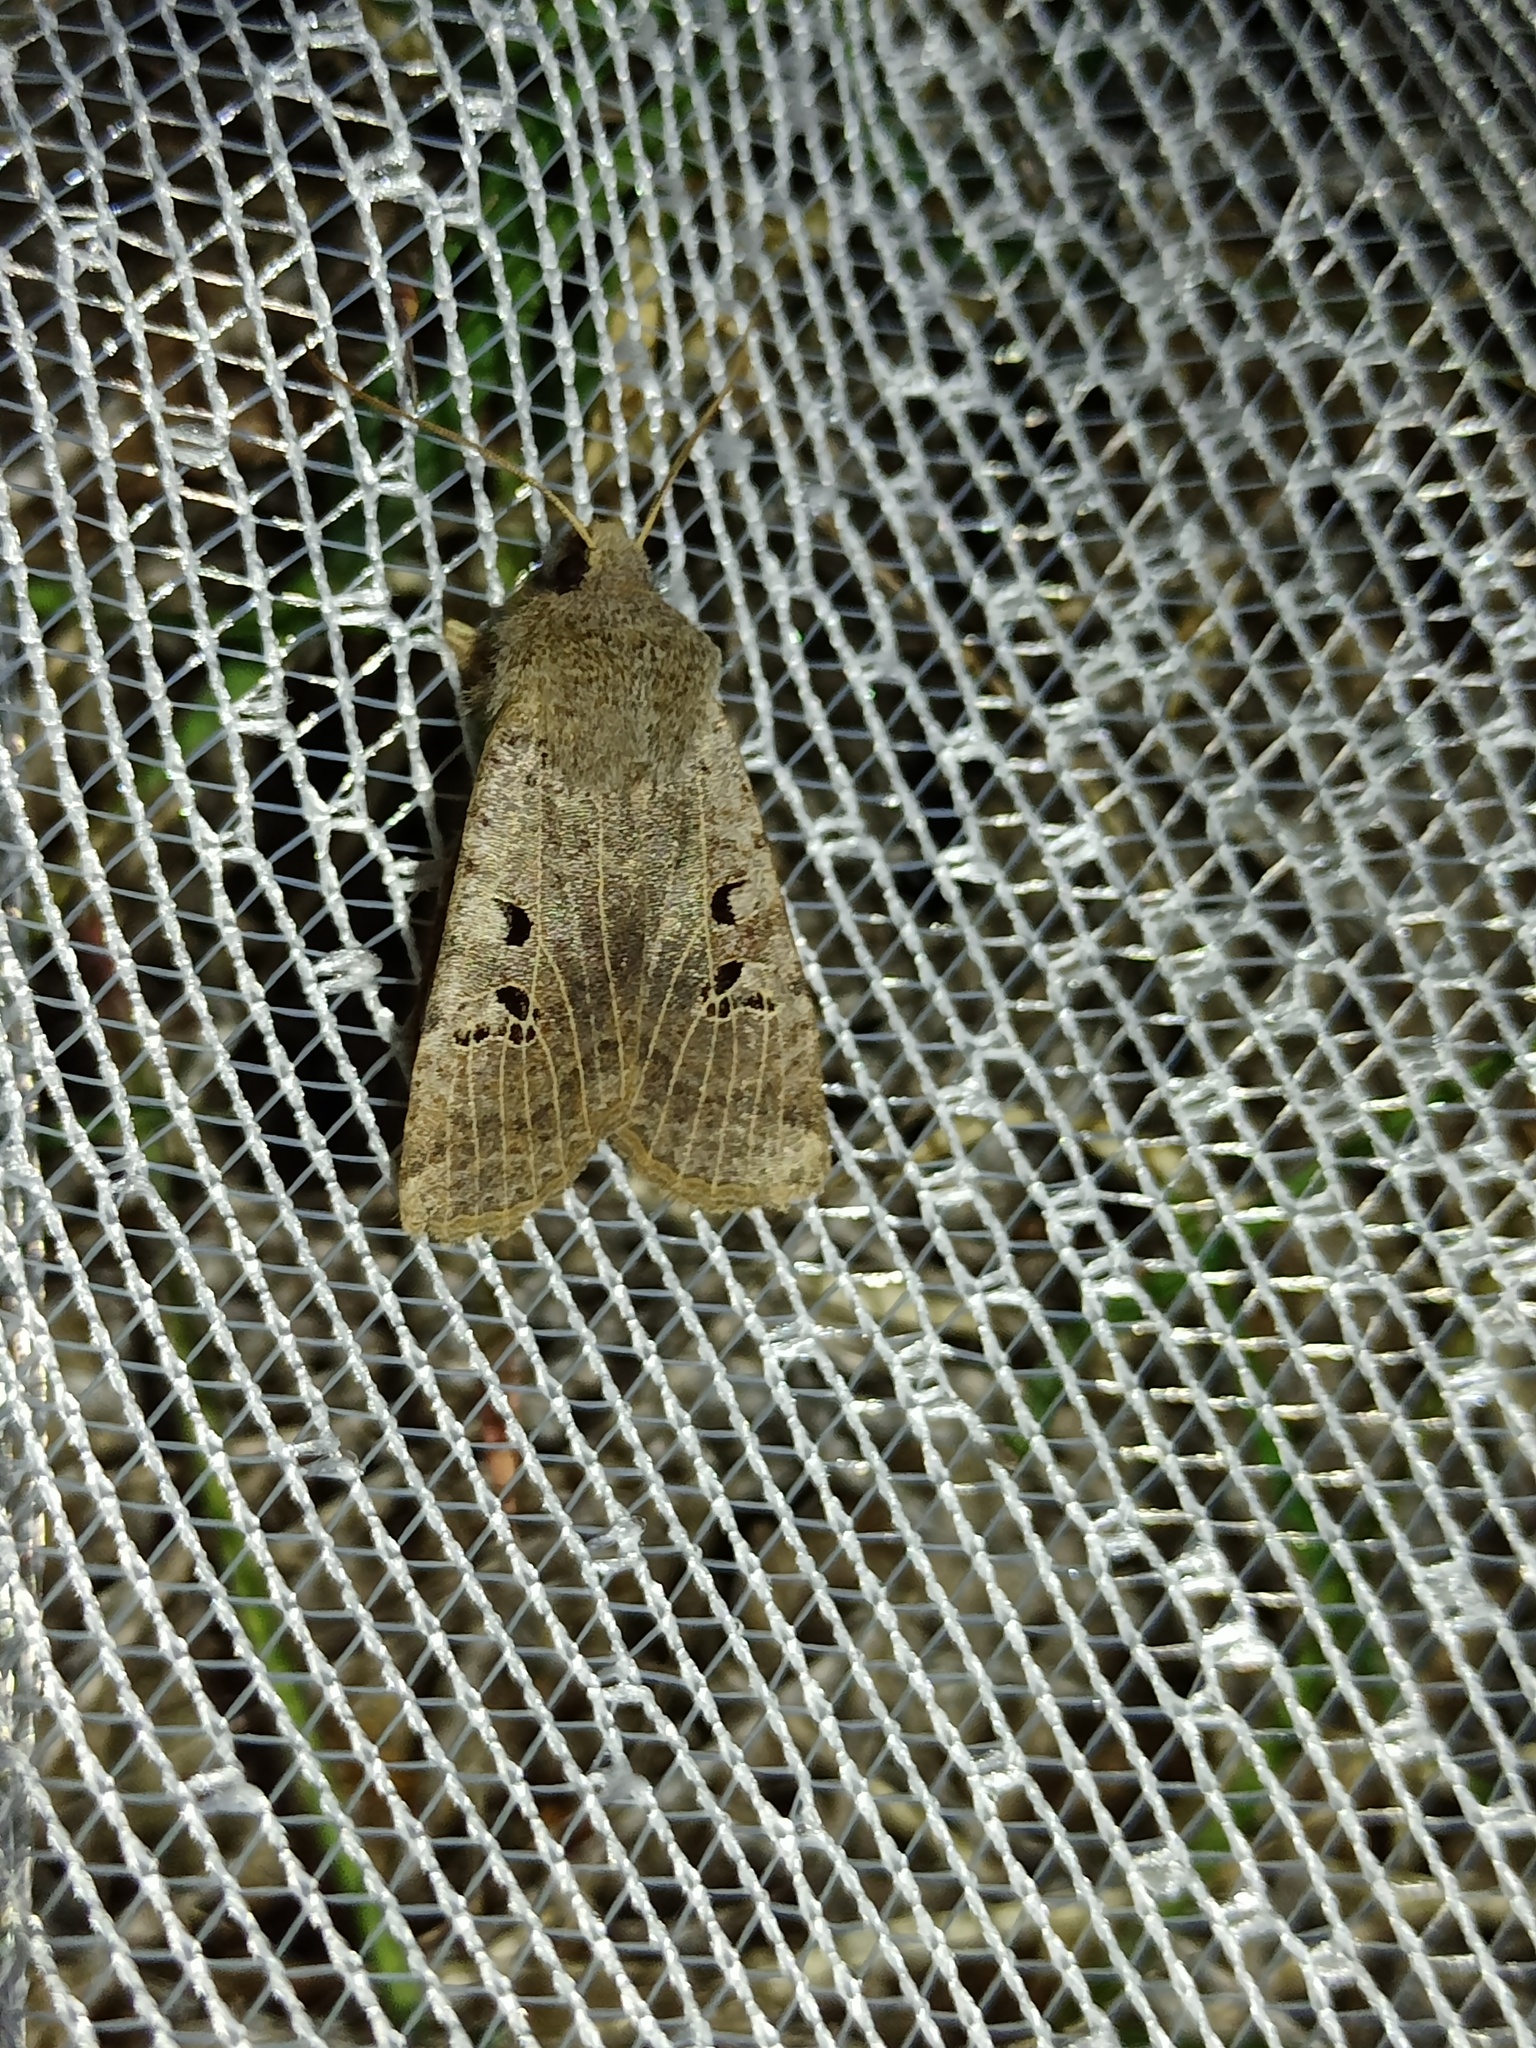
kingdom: Animalia
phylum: Arthropoda
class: Insecta
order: Lepidoptera
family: Noctuidae
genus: Conistra
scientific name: Conistra rubiginosa
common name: Black-spotted chestnut
